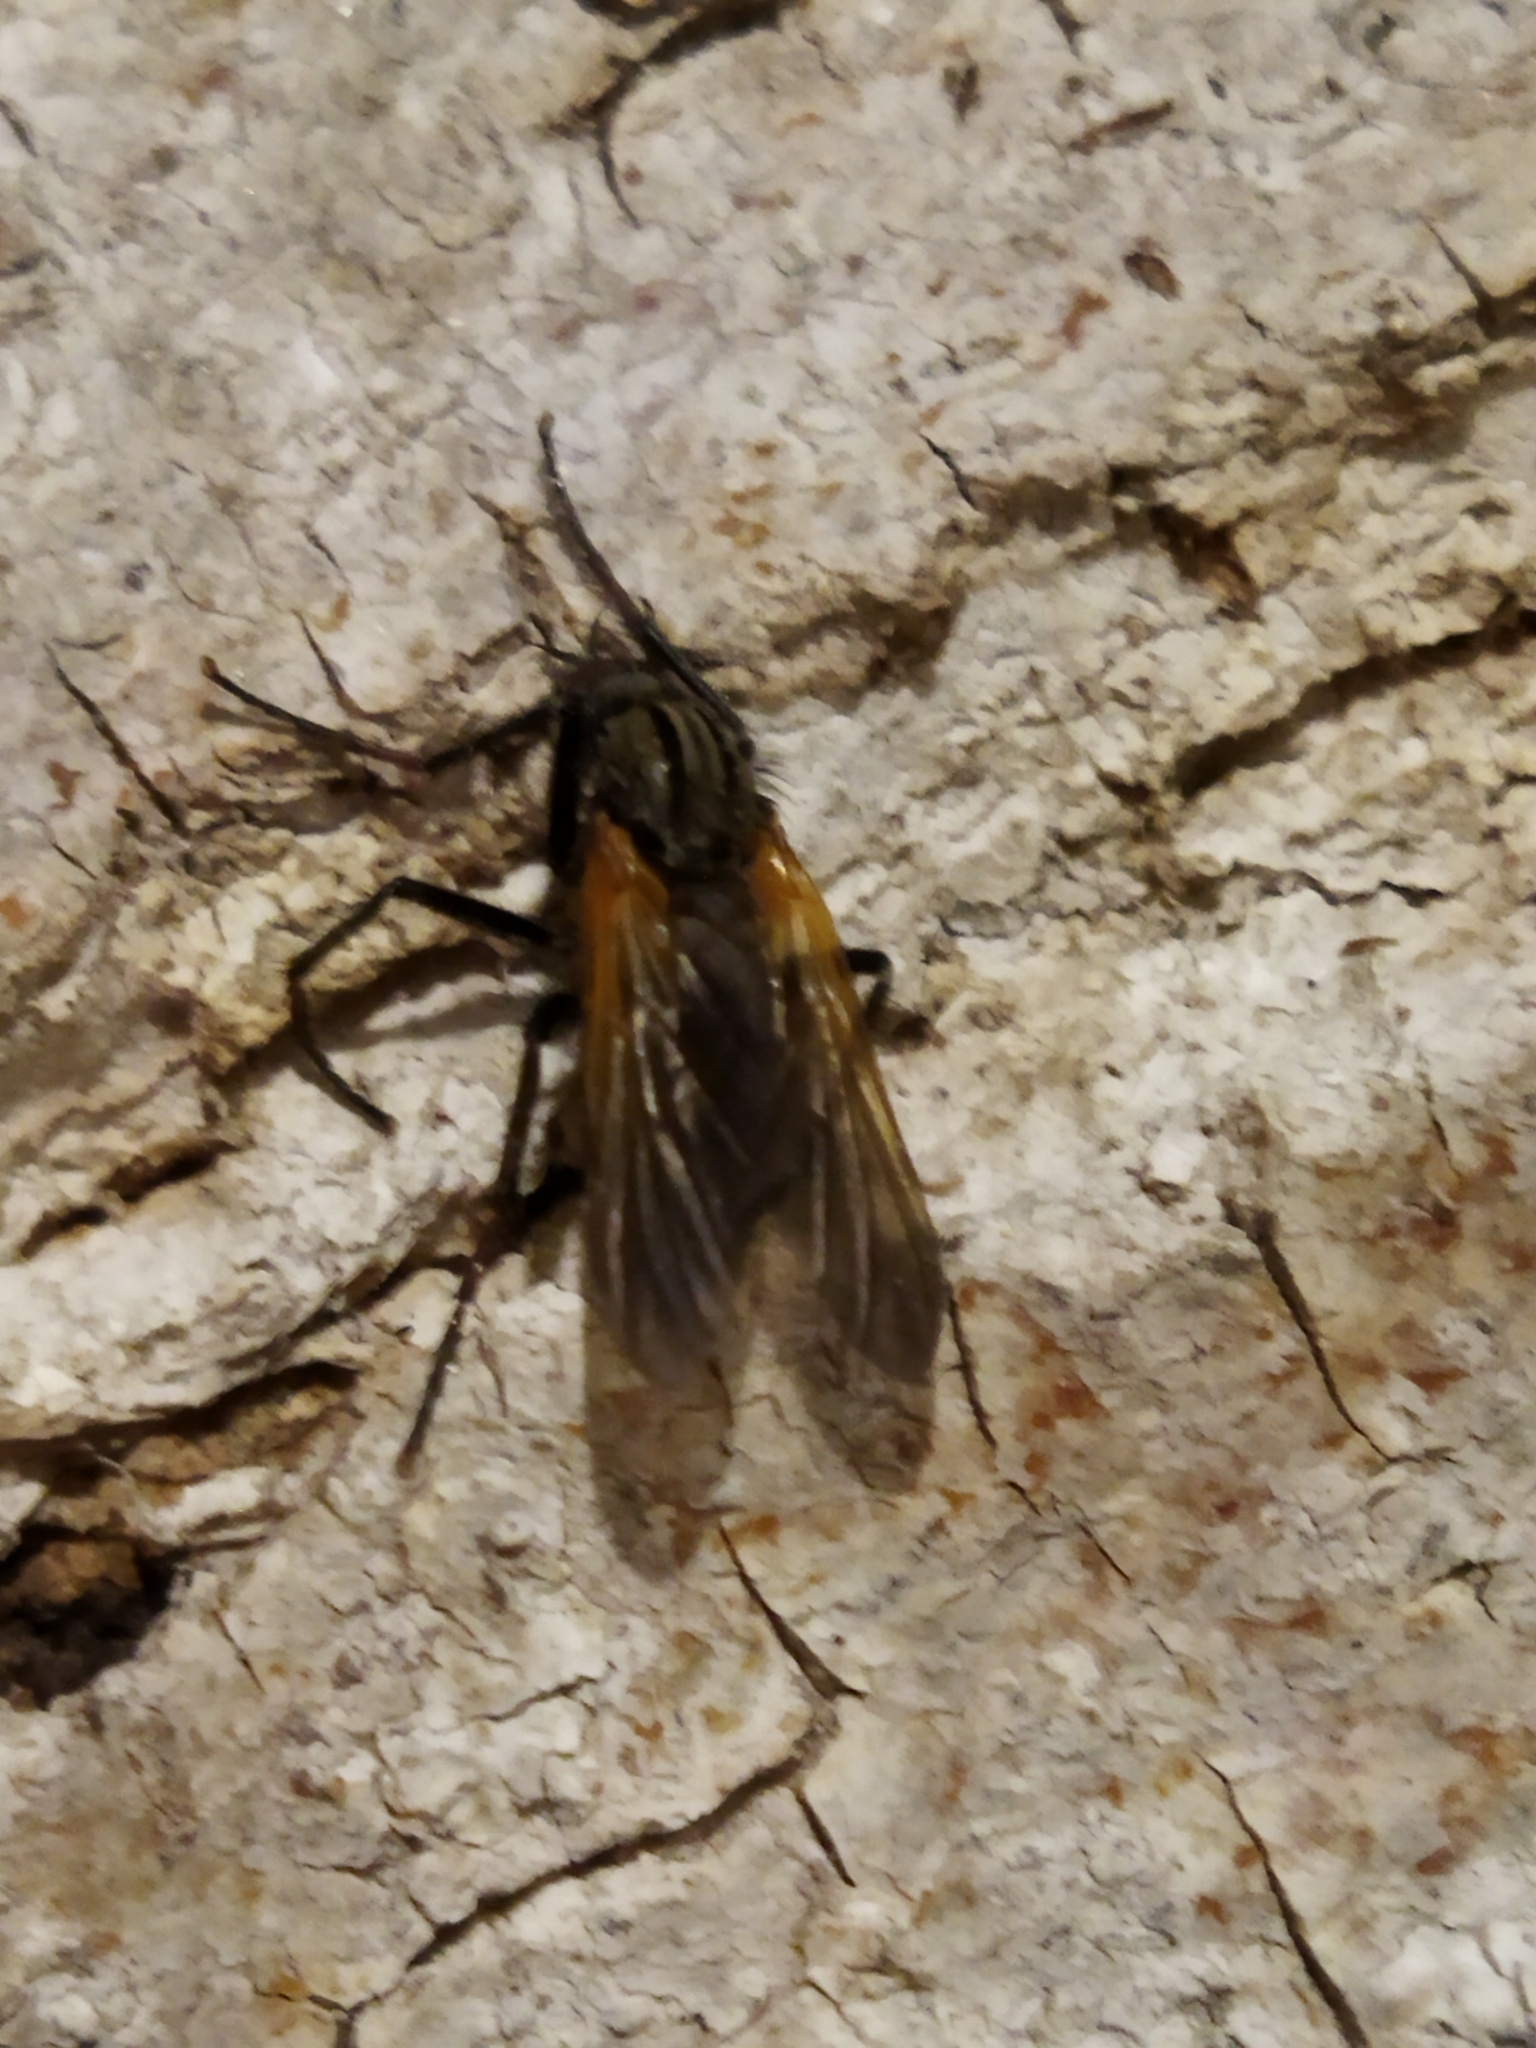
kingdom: Animalia
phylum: Arthropoda
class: Insecta
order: Diptera
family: Empididae
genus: Empis
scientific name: Empis tessellata
